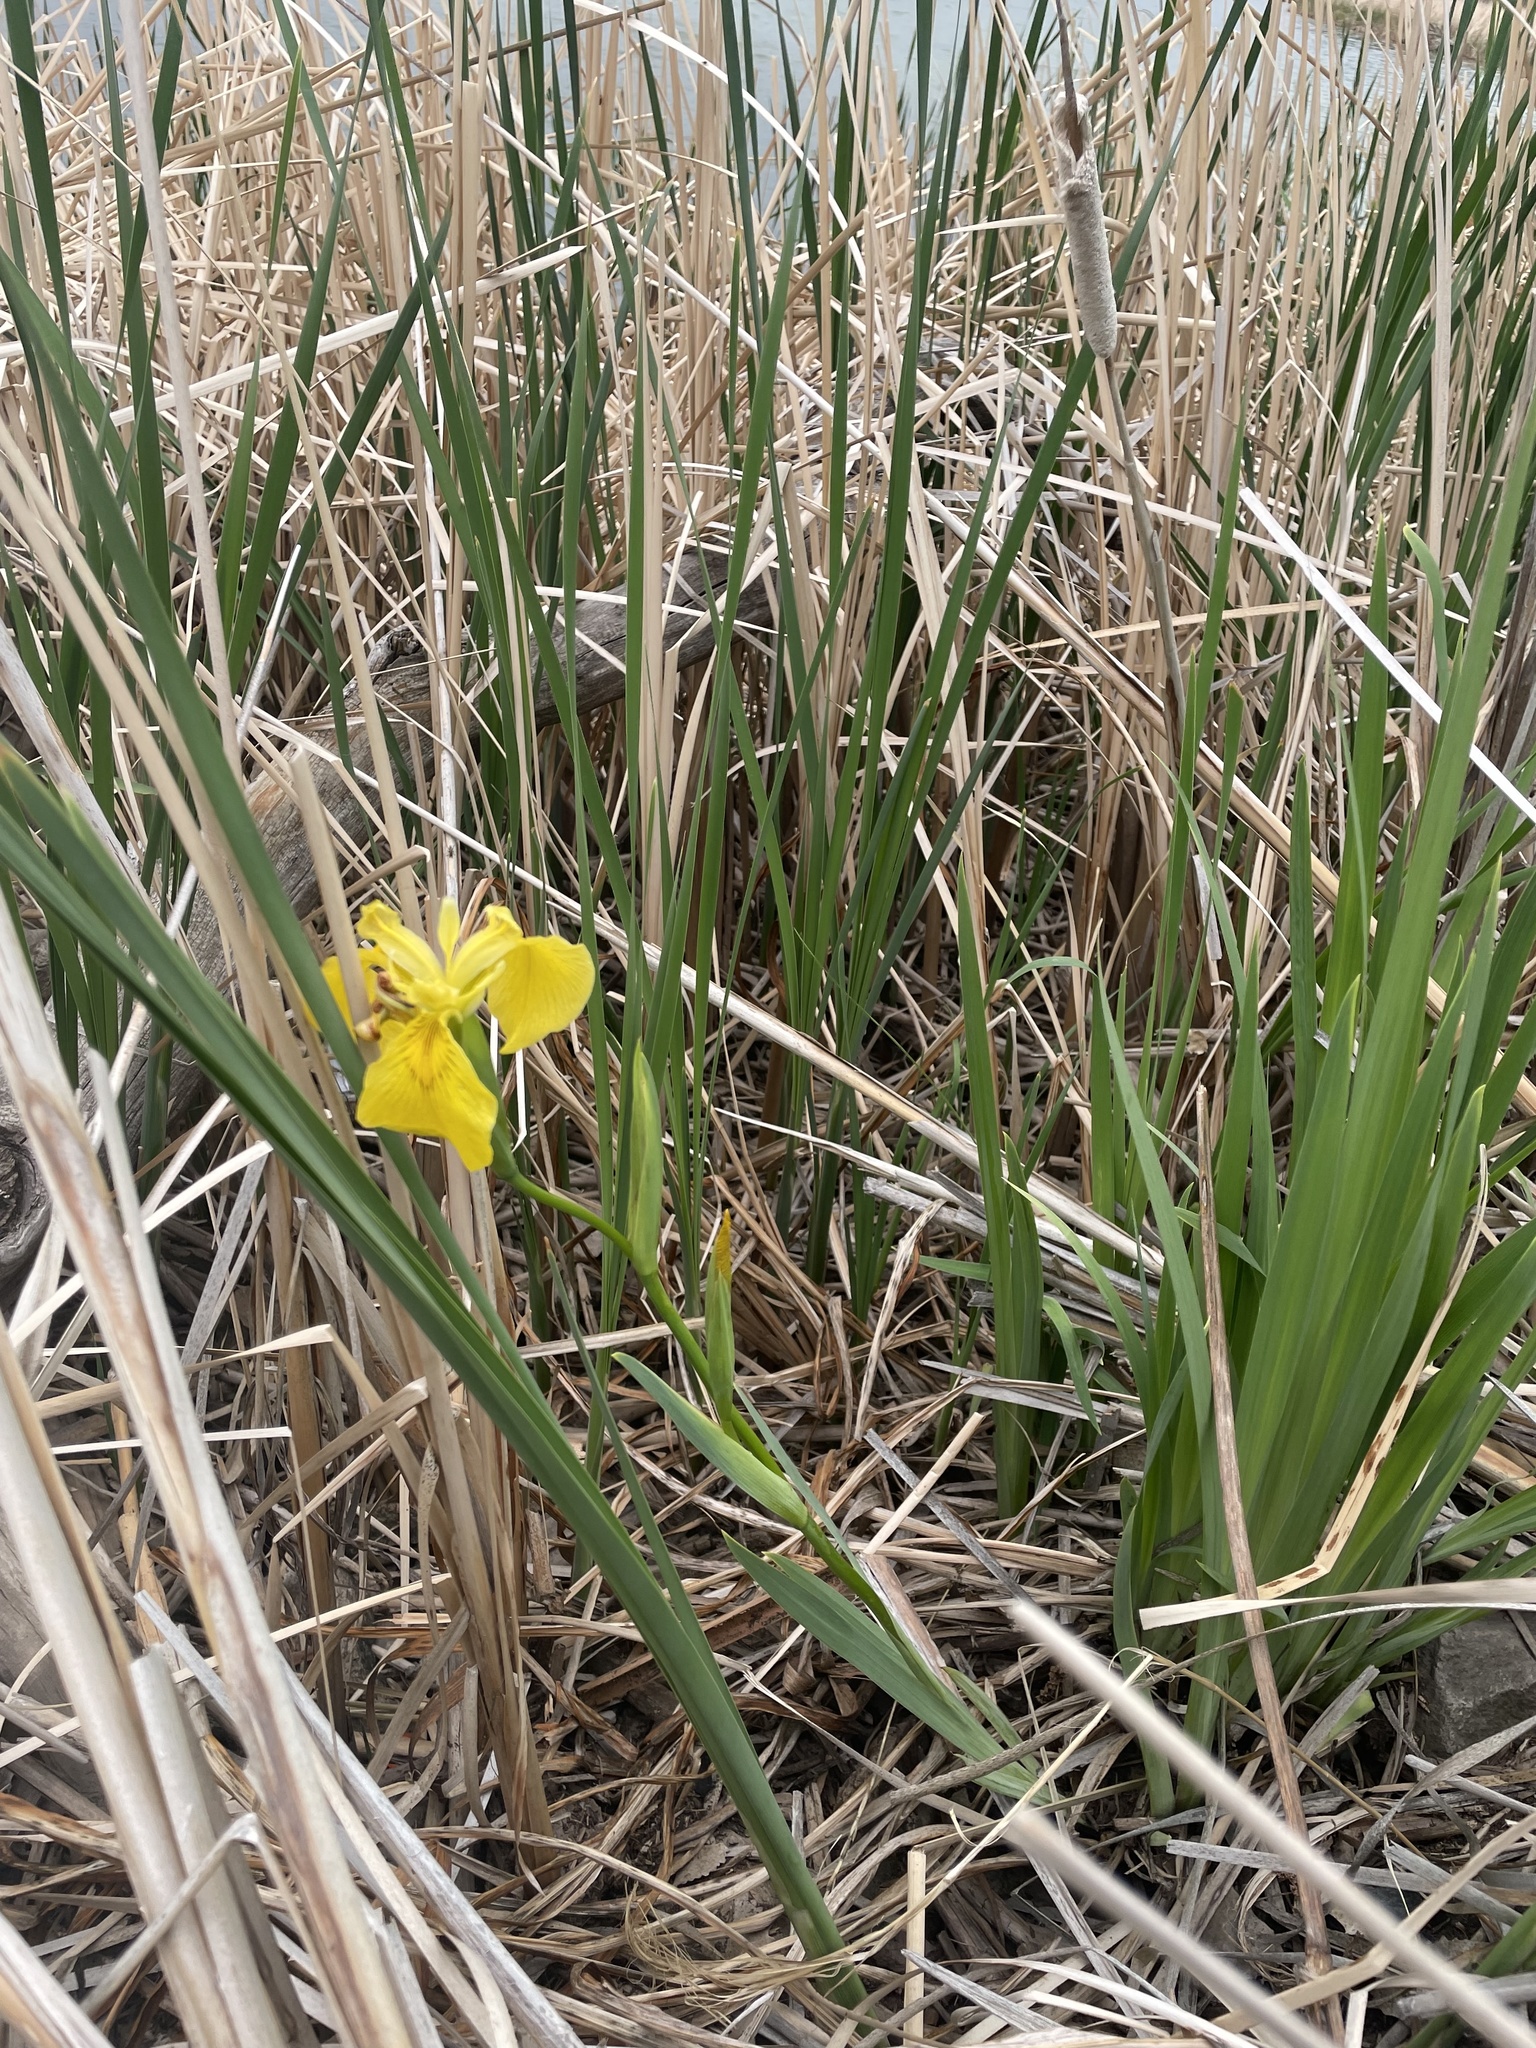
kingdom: Plantae
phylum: Tracheophyta
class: Liliopsida
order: Asparagales
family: Iridaceae
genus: Iris
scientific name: Iris pseudacorus
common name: Yellow flag
